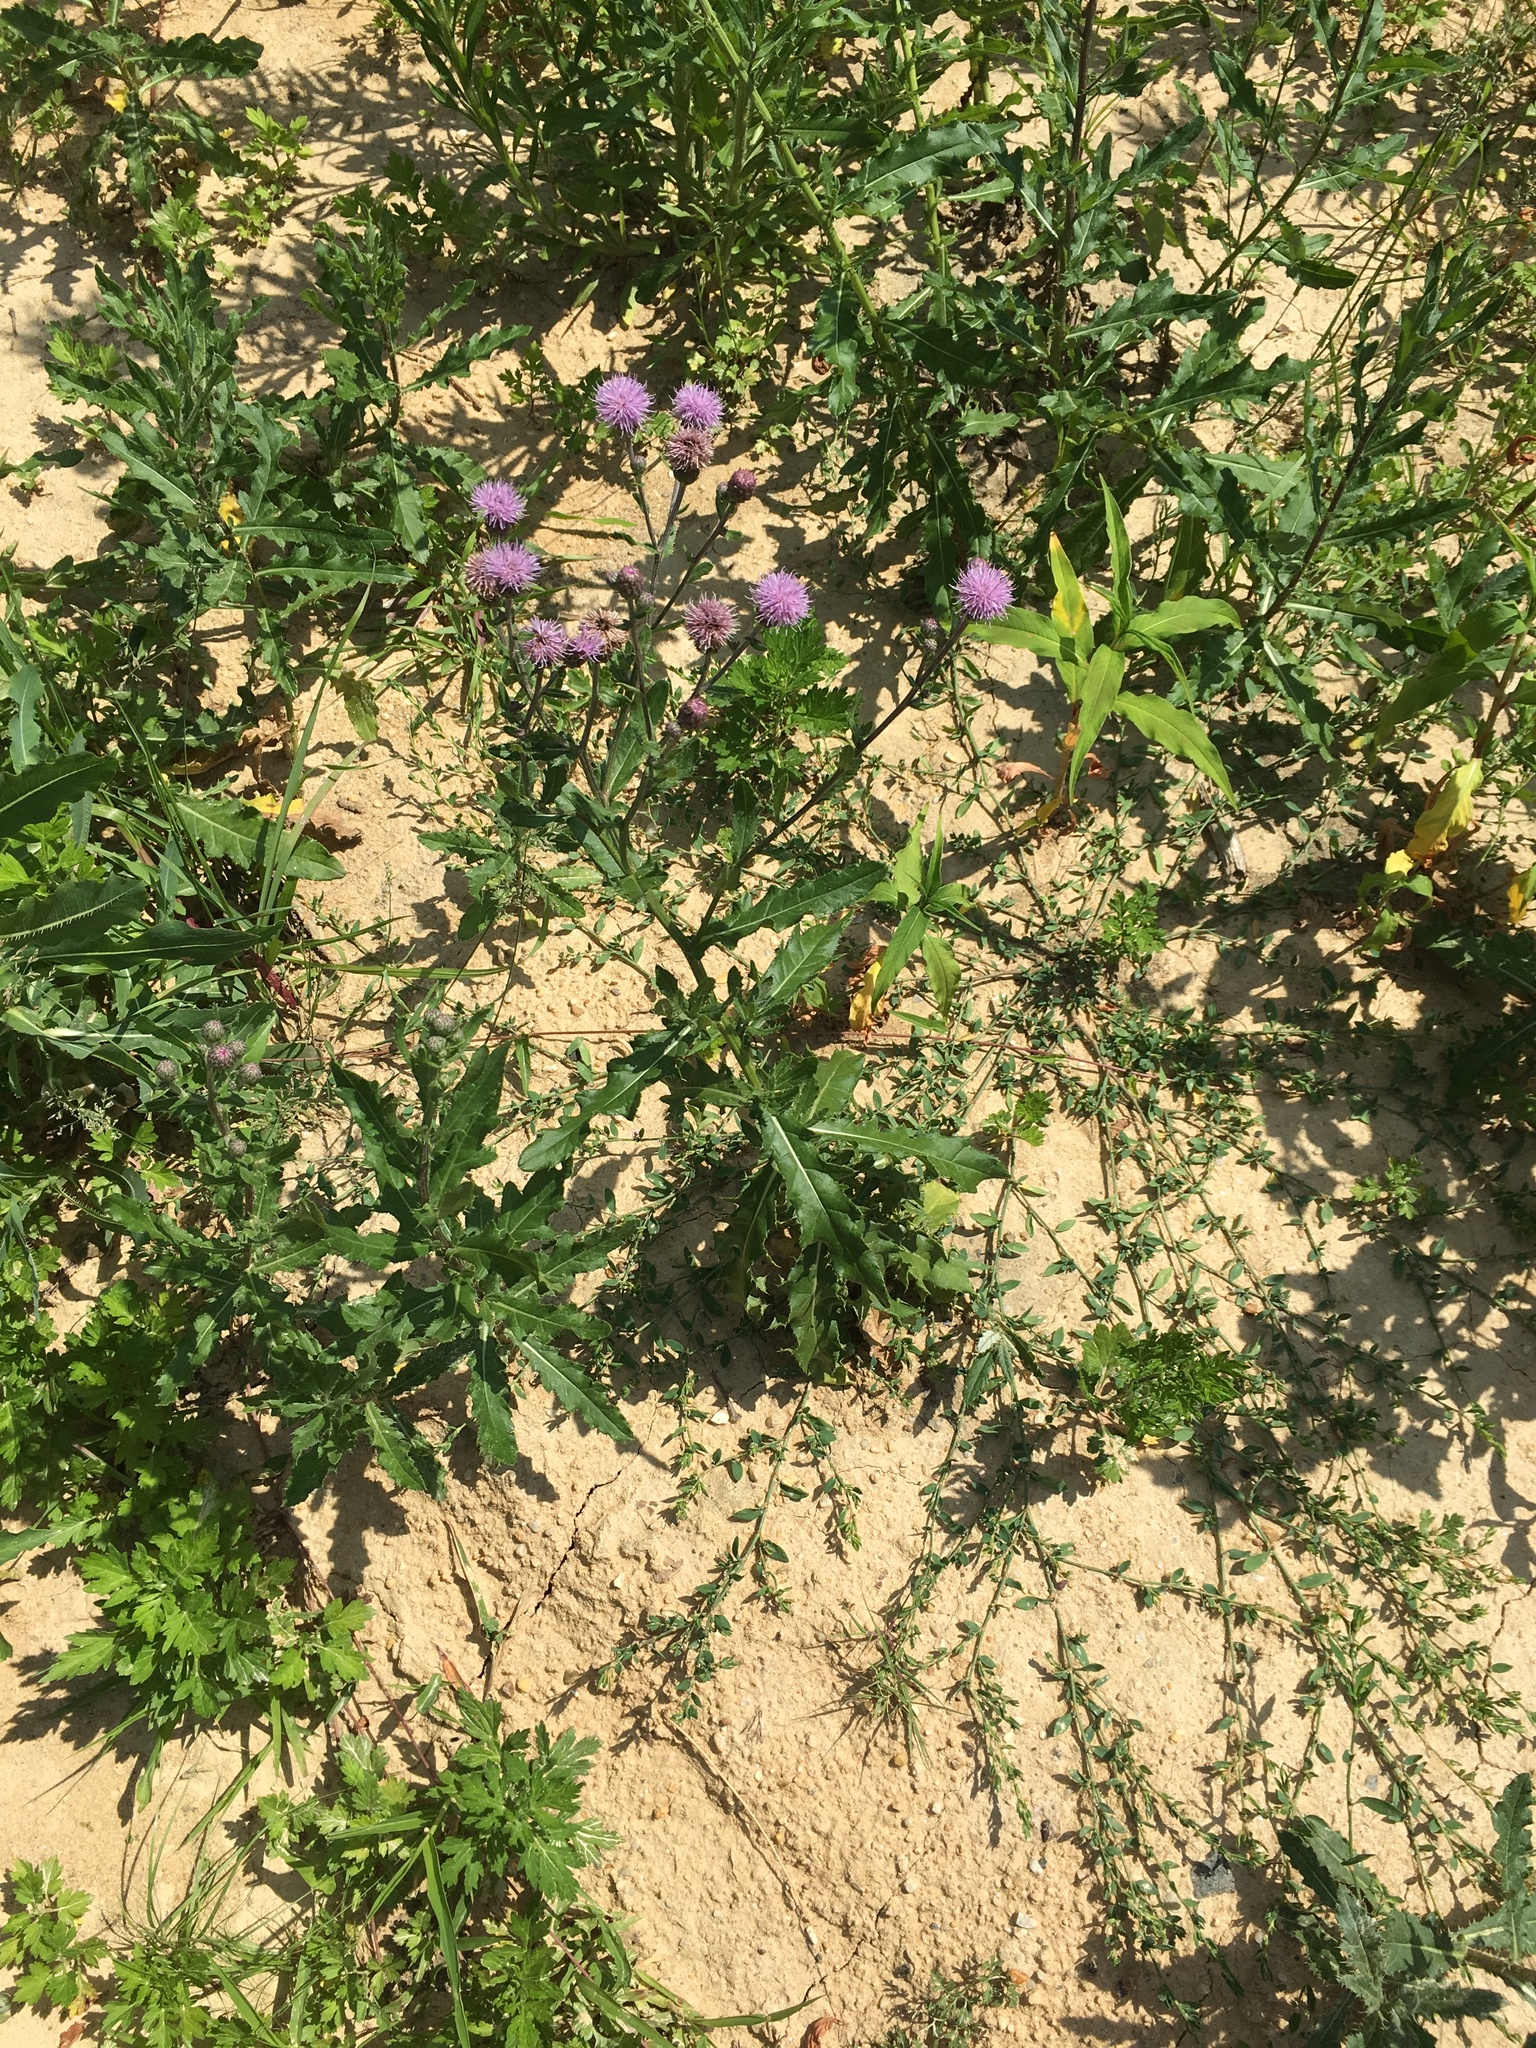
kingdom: Plantae
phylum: Tracheophyta
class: Magnoliopsida
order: Asterales
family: Asteraceae
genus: Cirsium
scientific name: Cirsium arvense
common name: Creeping thistle
